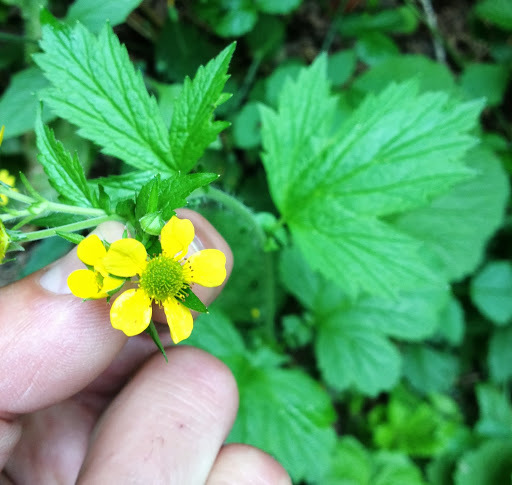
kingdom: Plantae
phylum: Tracheophyta
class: Magnoliopsida
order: Rosales
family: Rosaceae
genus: Geum
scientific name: Geum macrophyllum
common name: Large-leaved avens
